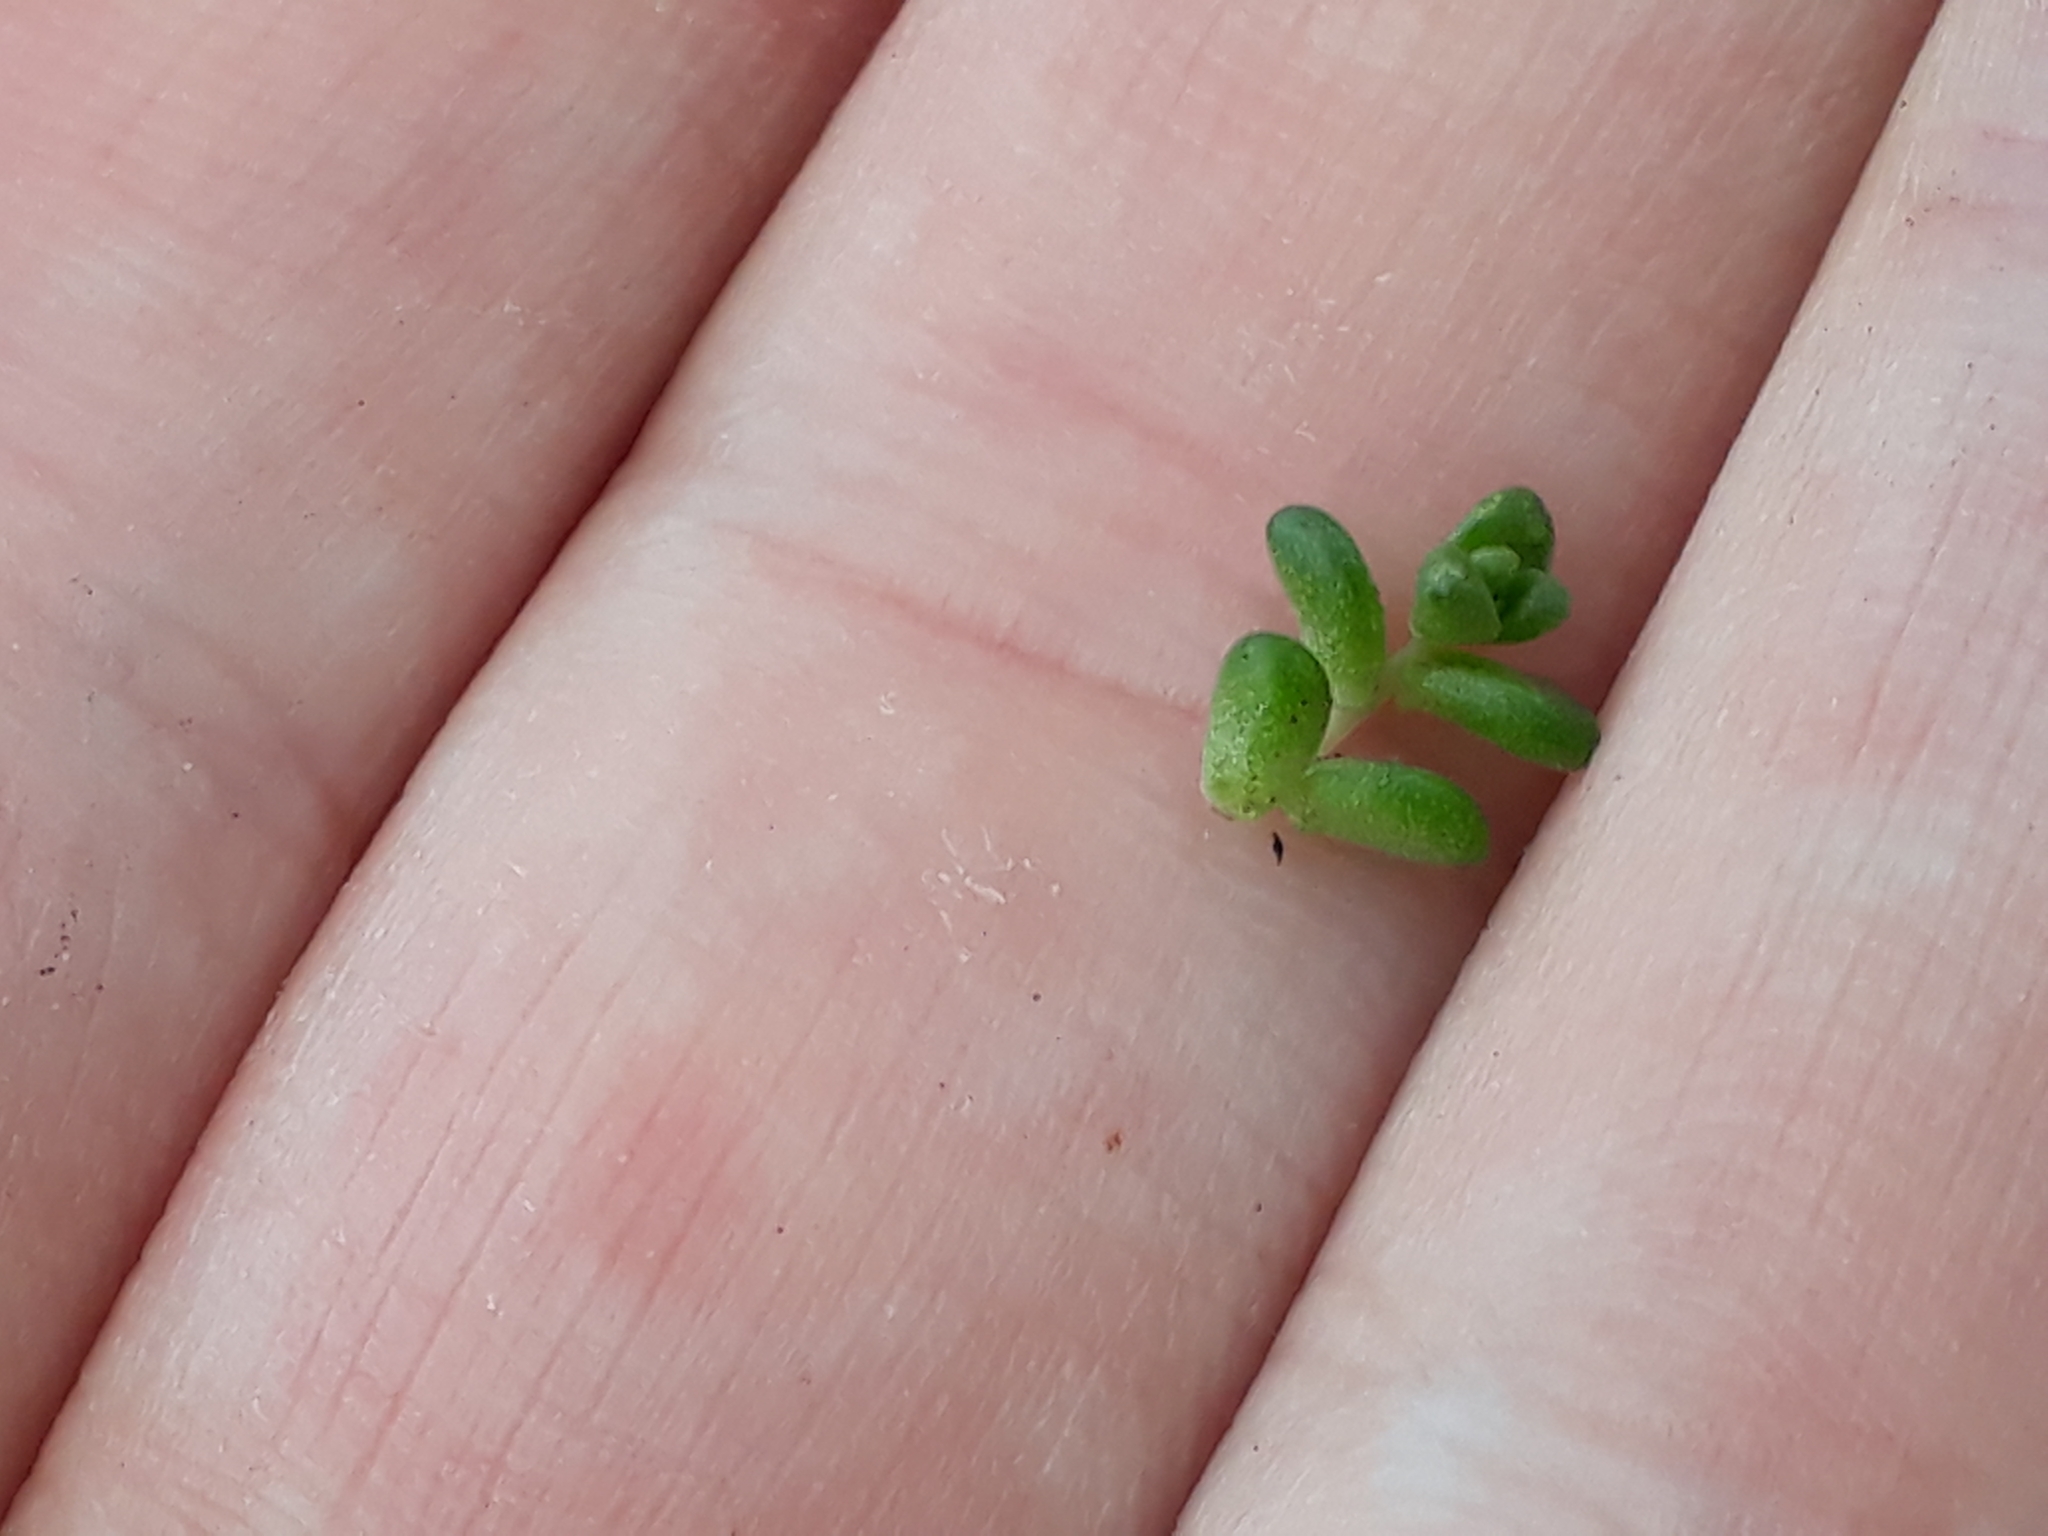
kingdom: Plantae
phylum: Tracheophyta
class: Magnoliopsida
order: Saxifragales
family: Crassulaceae
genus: Sedum
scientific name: Sedum anglicum
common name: English stonecrop
